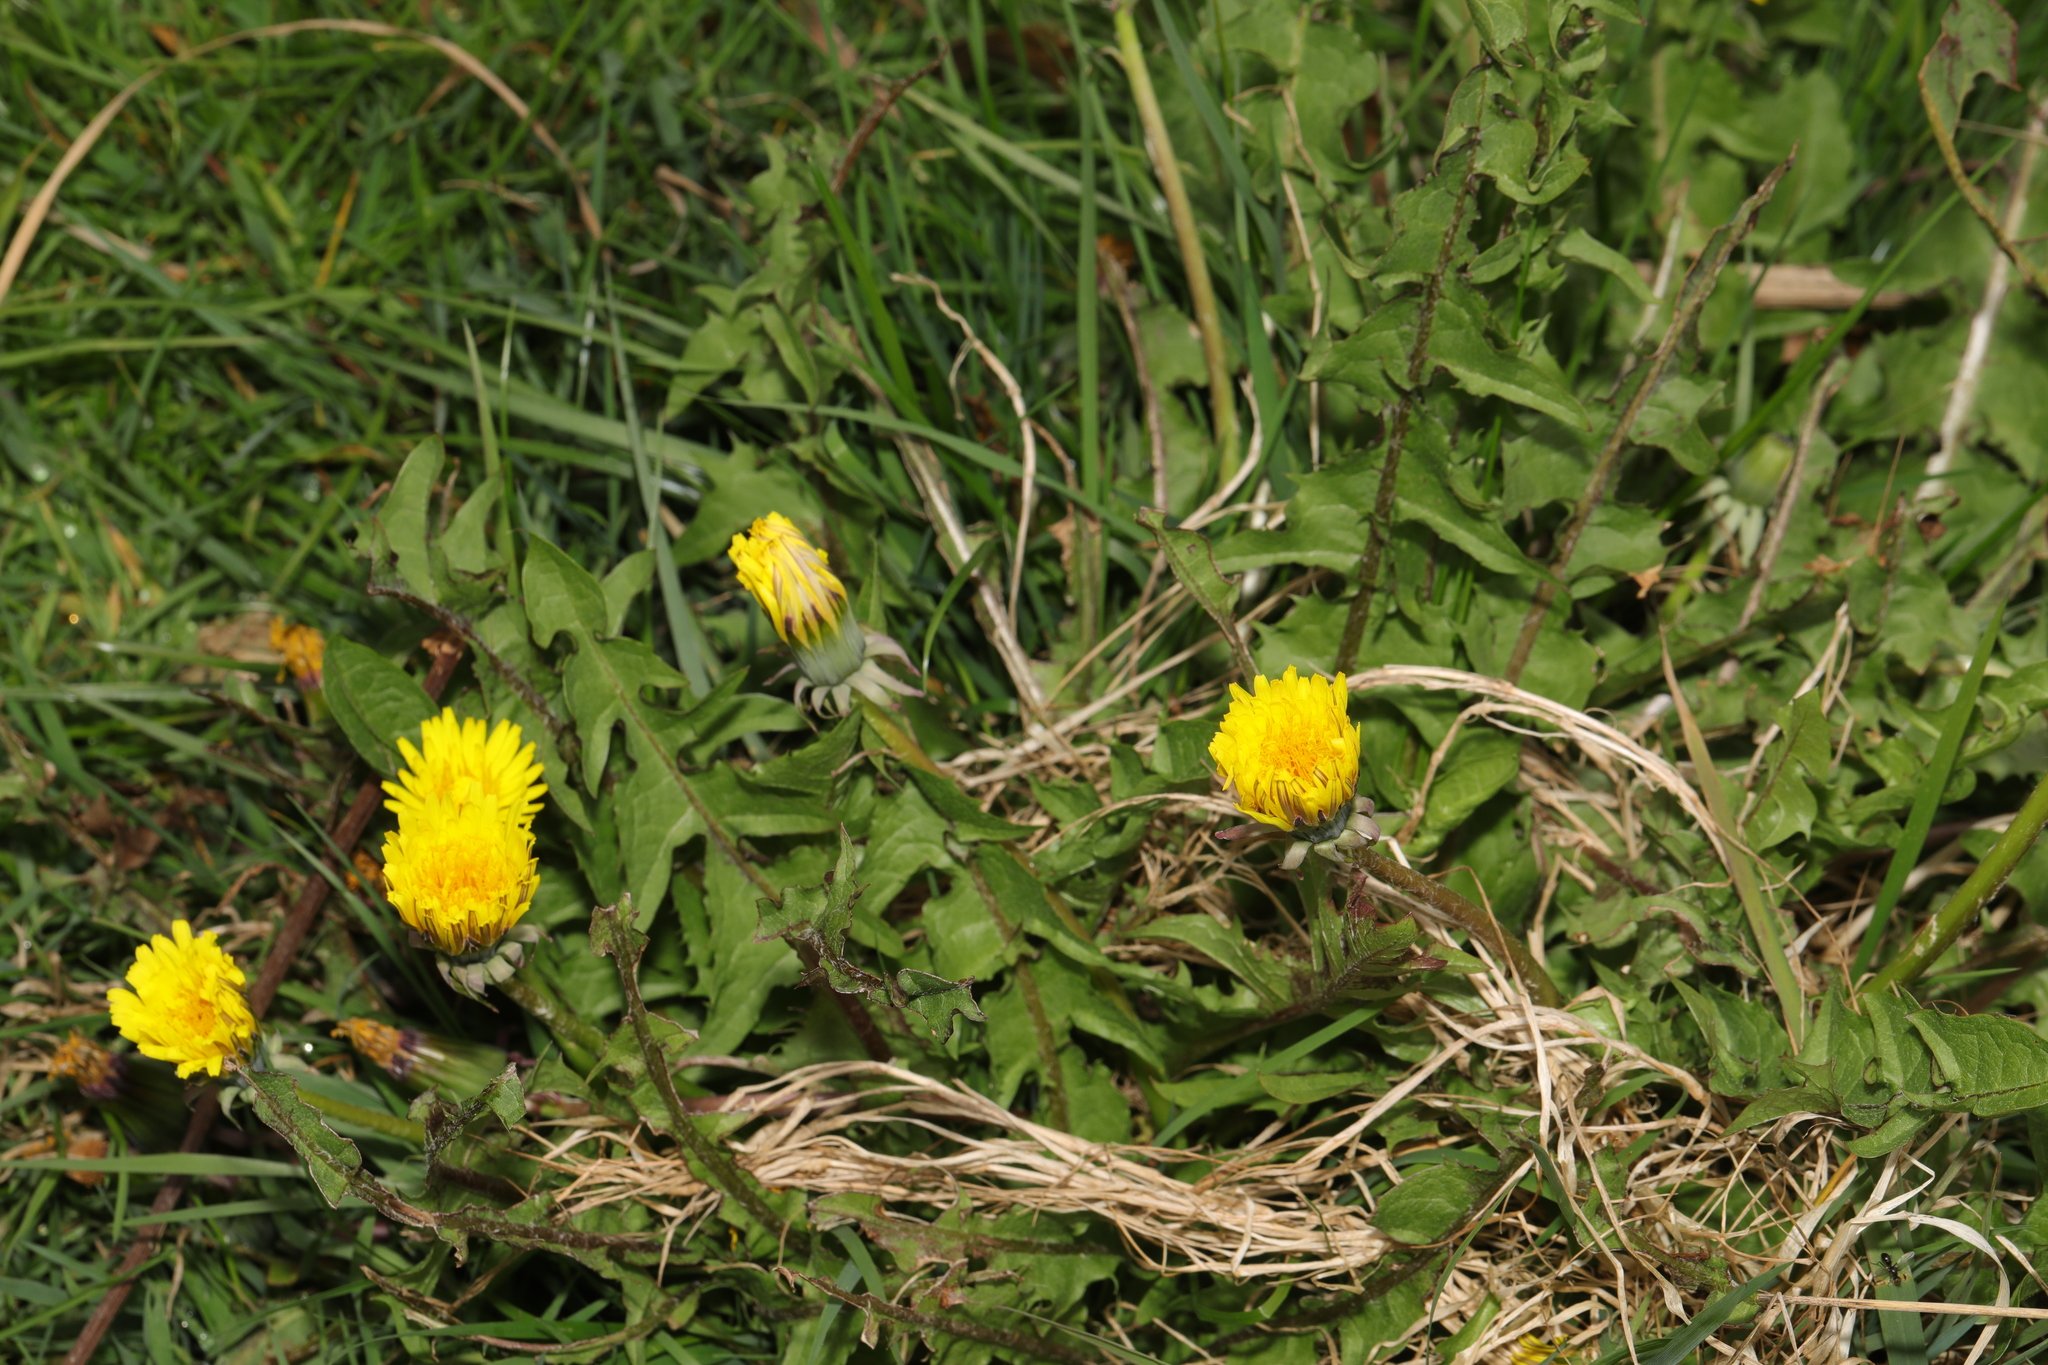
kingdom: Plantae
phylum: Tracheophyta
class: Magnoliopsida
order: Asterales
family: Asteraceae
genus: Taraxacum
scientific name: Taraxacum officinale
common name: Common dandelion
